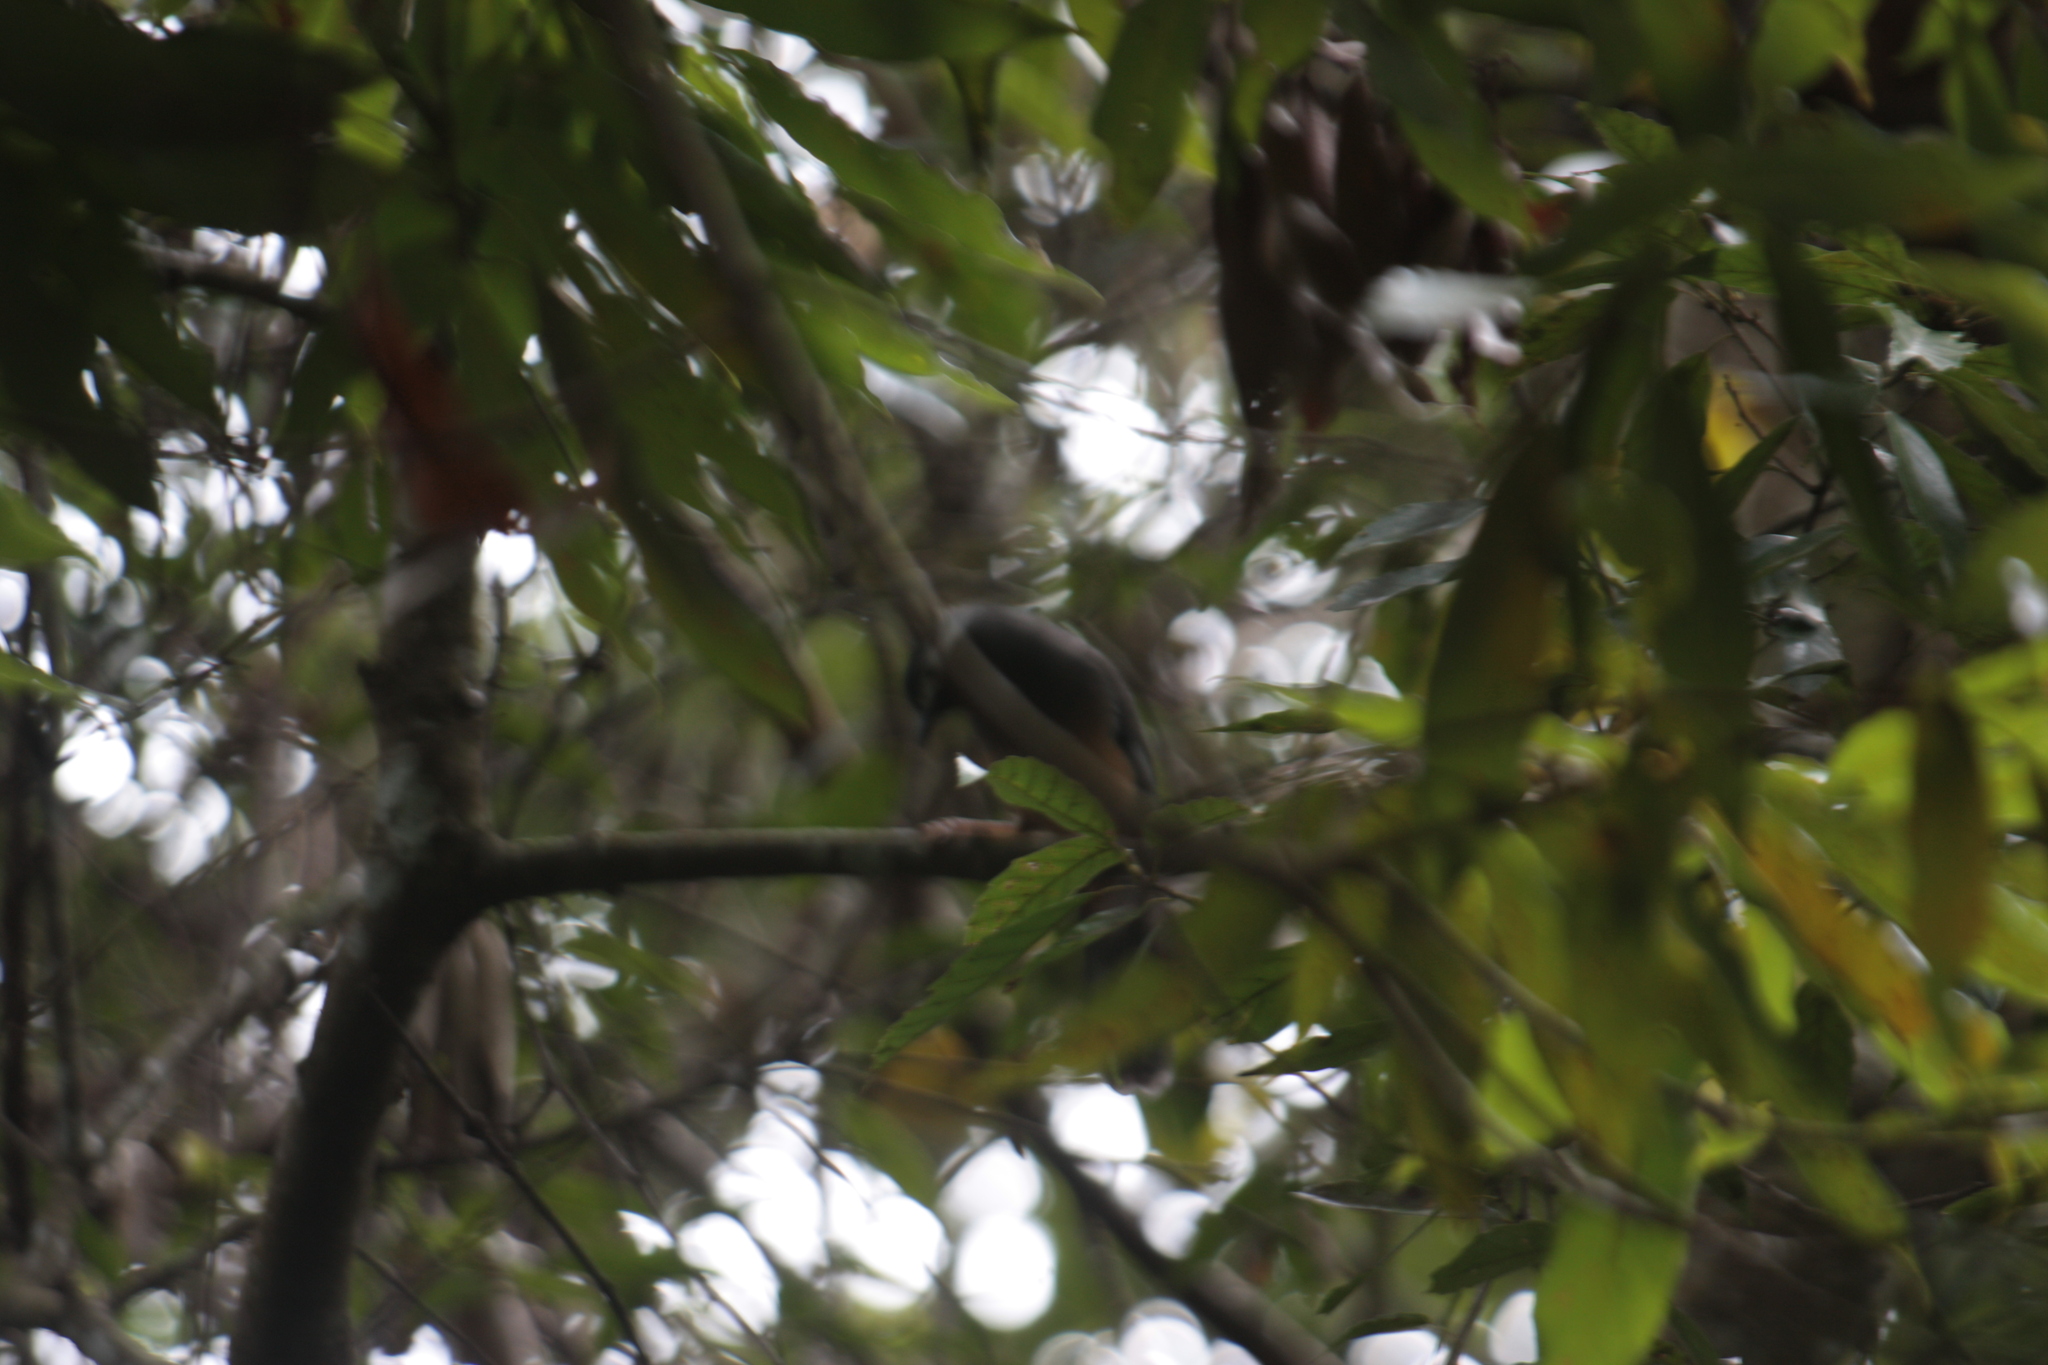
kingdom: Animalia
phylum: Chordata
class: Aves
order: Passeriformes
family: Leiothrichidae
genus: Heterophasia
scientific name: Heterophasia auricularis
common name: White-eared sibia
